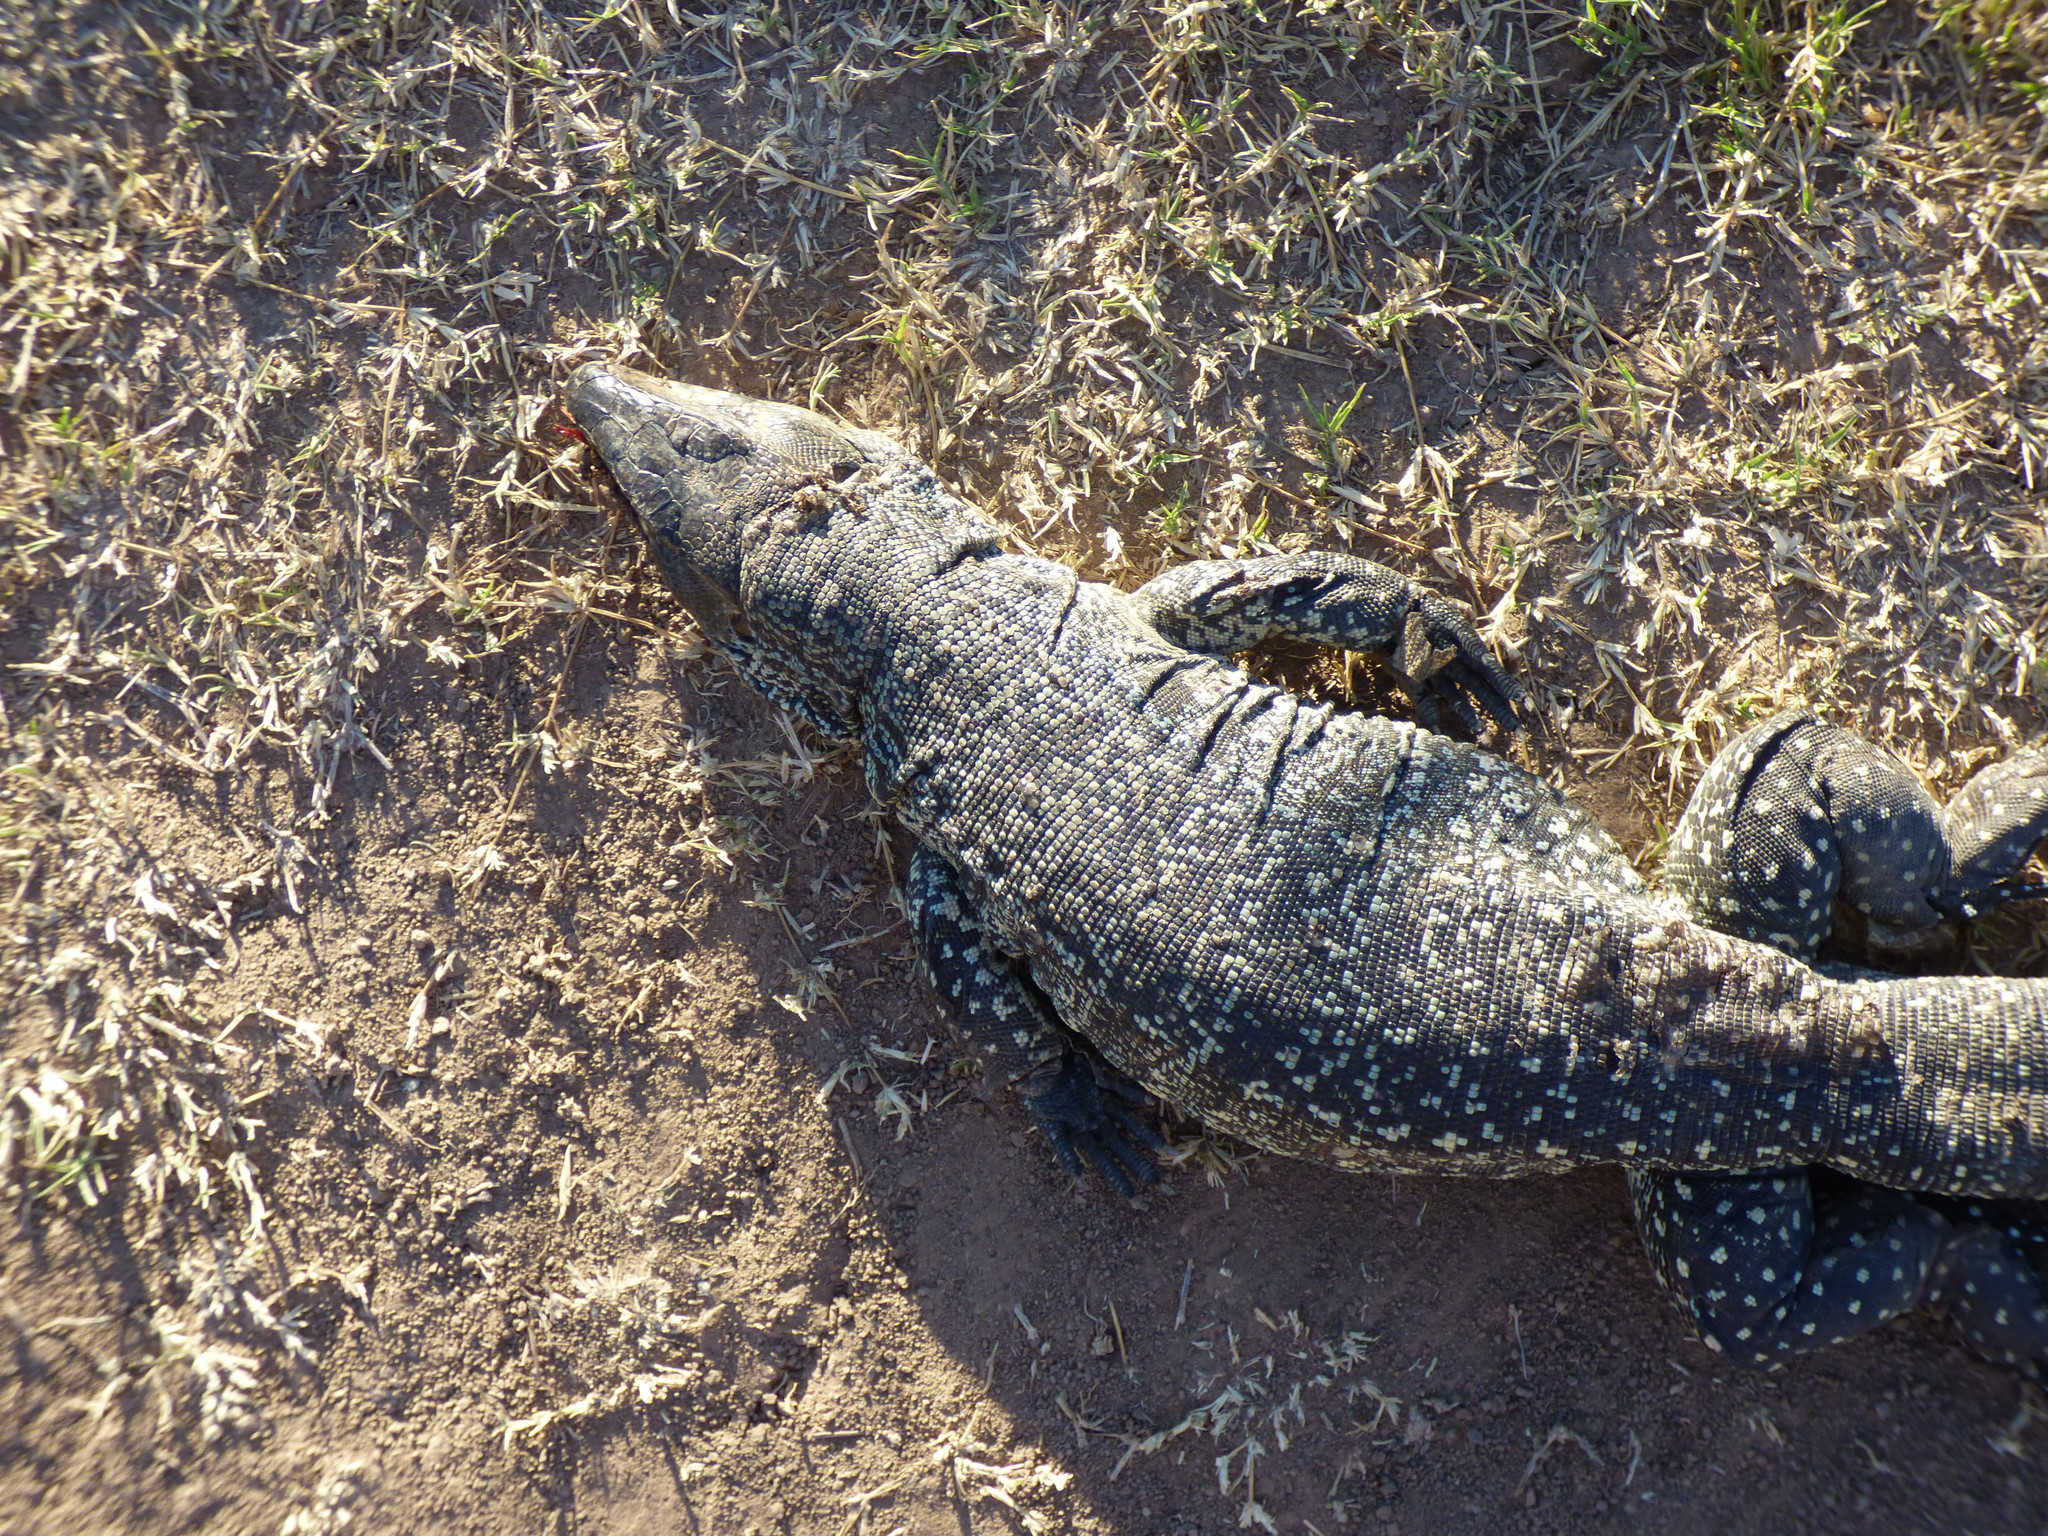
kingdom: Animalia
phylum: Chordata
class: Squamata
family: Teiidae
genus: Salvator
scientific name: Salvator merianae
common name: Argentine black and white tegu
